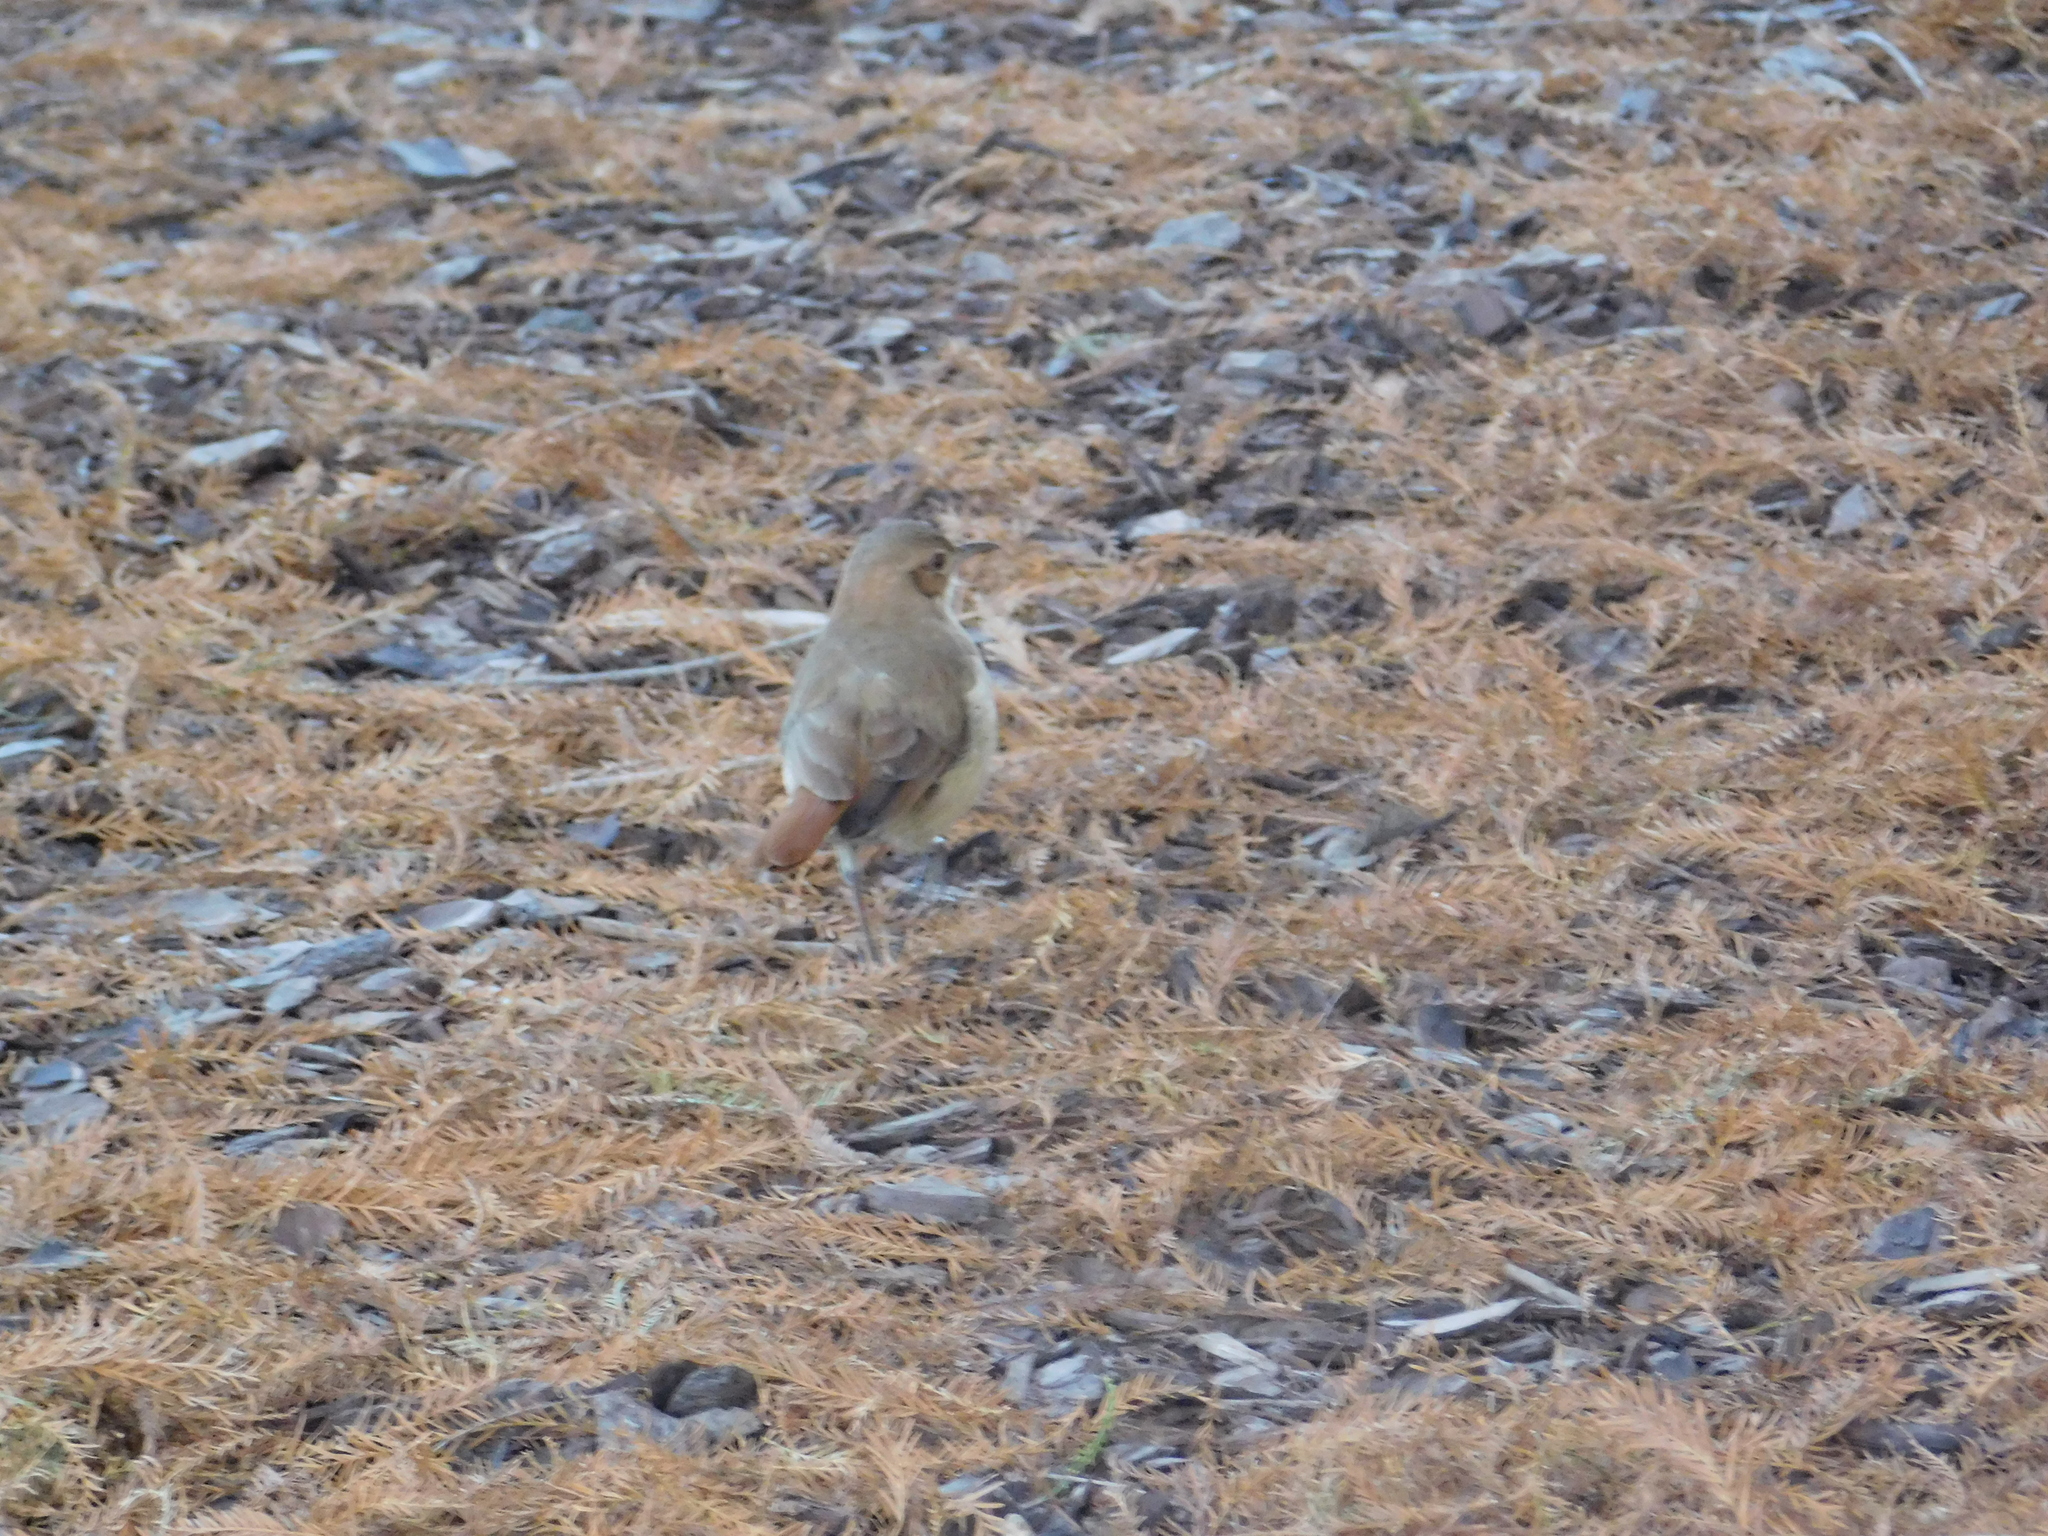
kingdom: Animalia
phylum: Chordata
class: Aves
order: Passeriformes
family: Furnariidae
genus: Furnarius
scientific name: Furnarius rufus
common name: Rufous hornero
